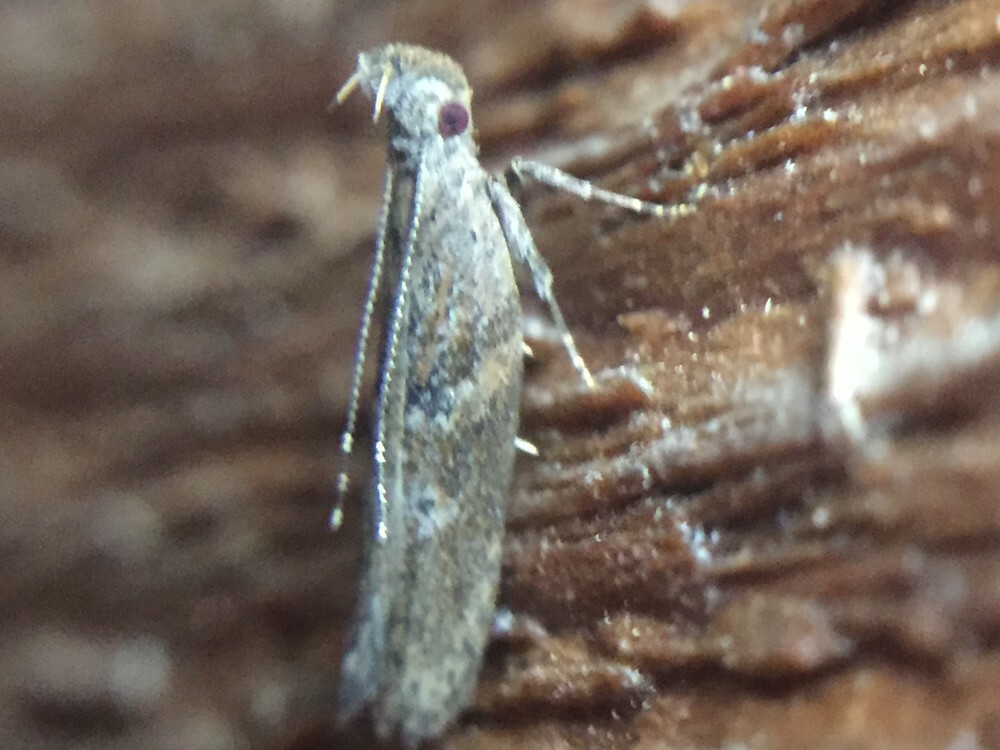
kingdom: Animalia
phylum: Arthropoda
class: Insecta
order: Lepidoptera
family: Depressariidae
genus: Eutorna
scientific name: Eutorna phaulocosma
